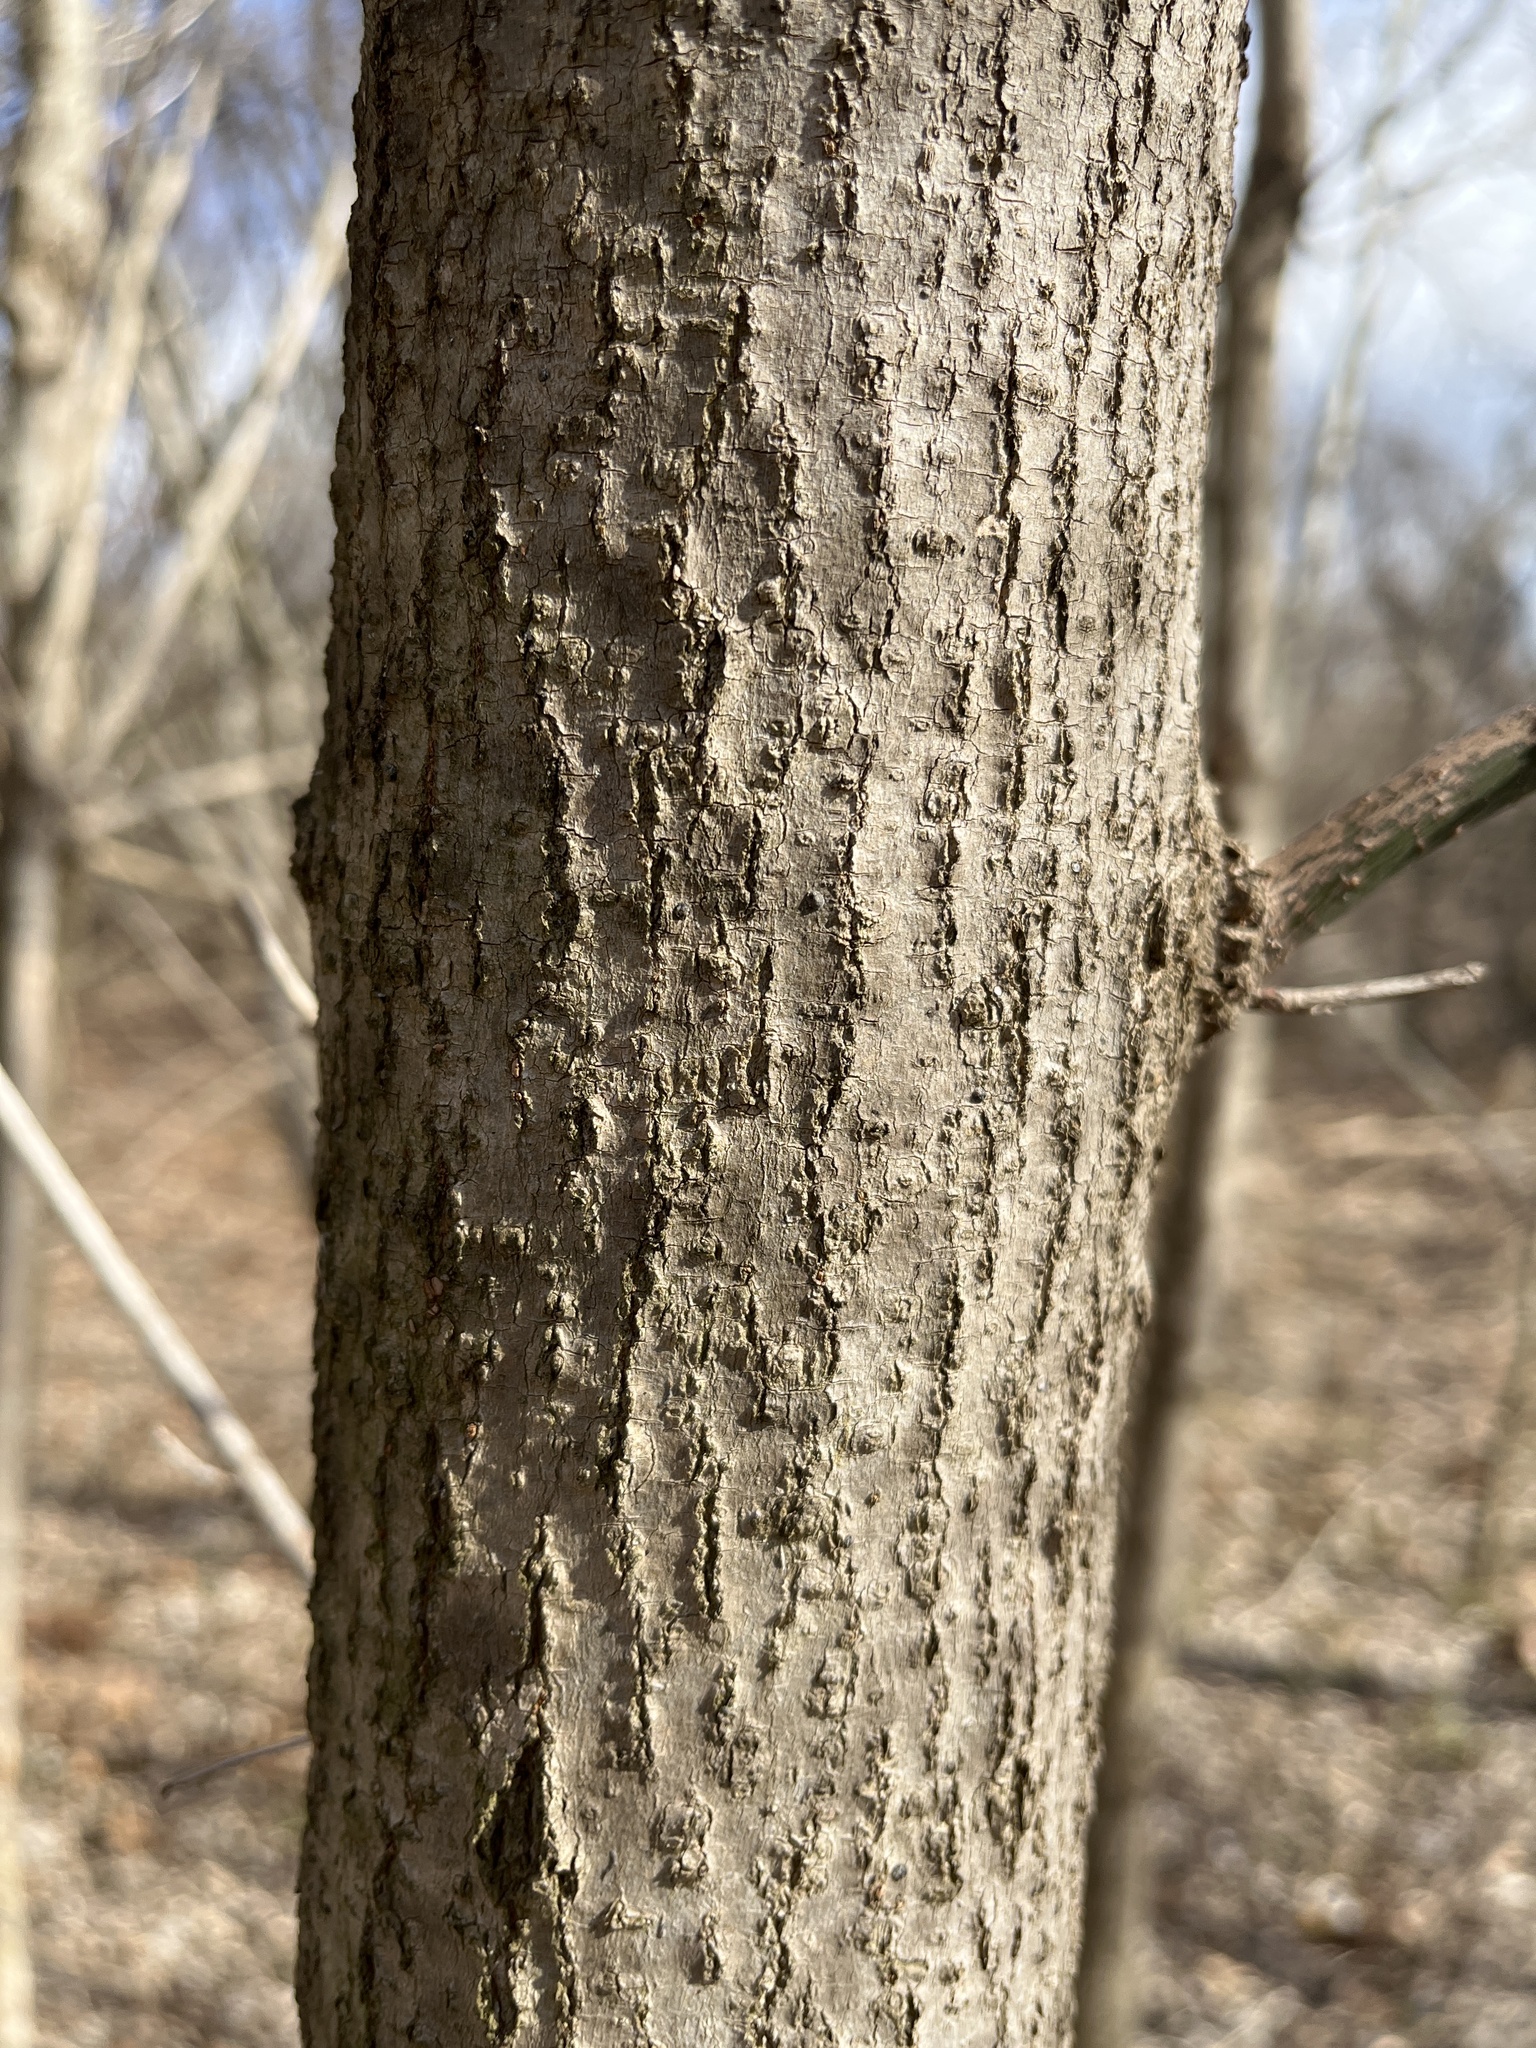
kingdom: Plantae
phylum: Tracheophyta
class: Magnoliopsida
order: Sapindales
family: Sapindaceae
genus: Acer
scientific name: Acer negundo
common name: Ashleaf maple
